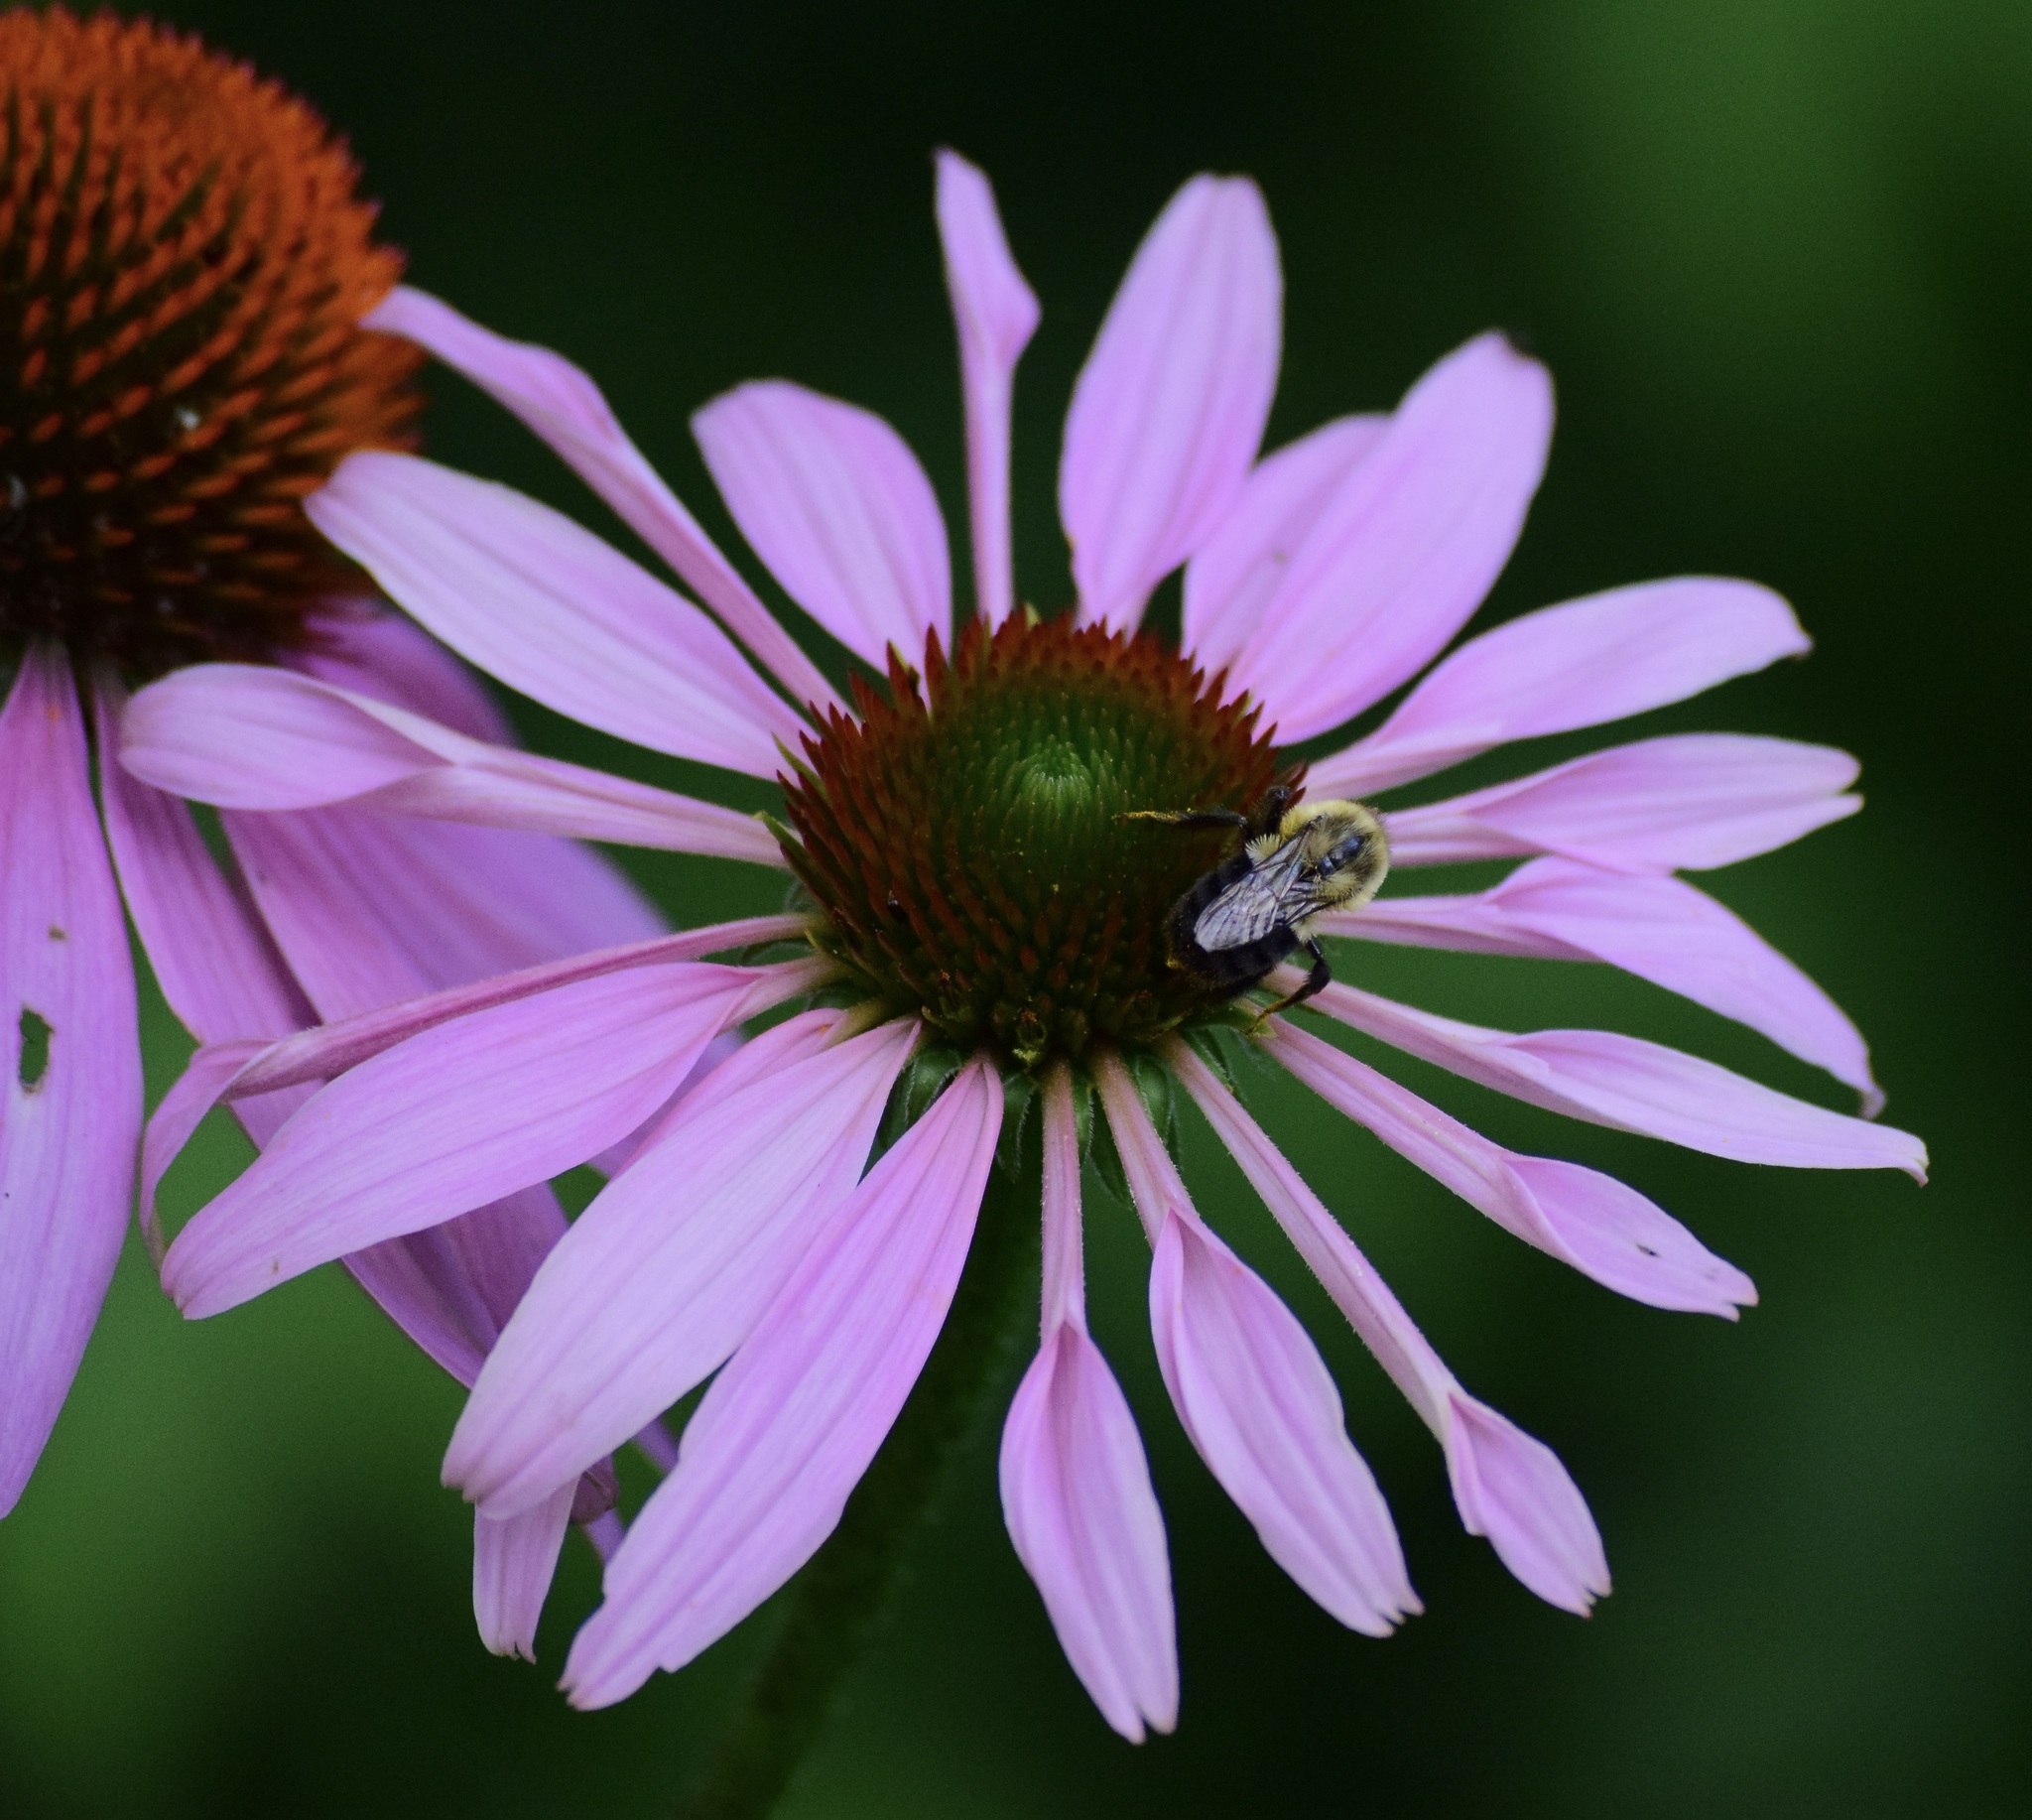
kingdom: Animalia
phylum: Arthropoda
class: Insecta
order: Hymenoptera
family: Apidae
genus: Bombus
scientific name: Bombus impatiens
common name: Common eastern bumble bee
